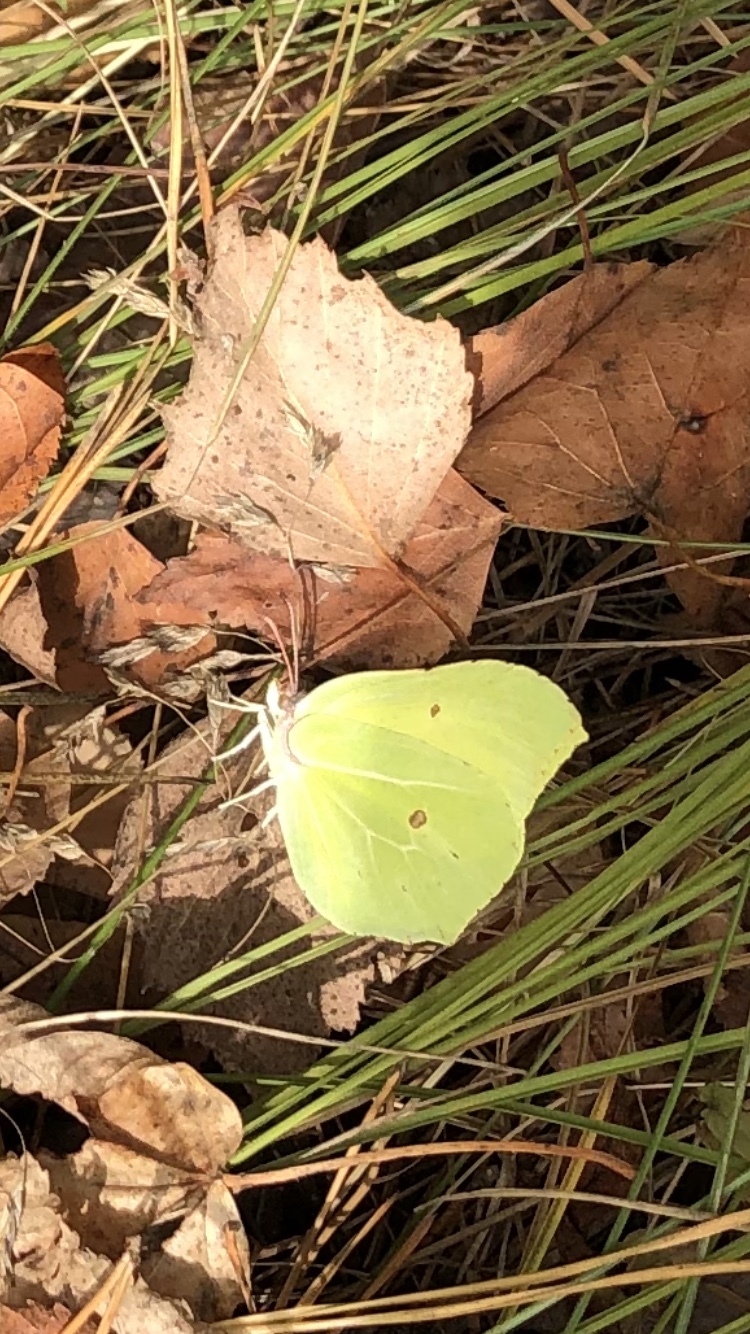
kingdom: Animalia
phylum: Arthropoda
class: Insecta
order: Lepidoptera
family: Pieridae
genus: Gonepteryx
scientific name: Gonepteryx rhamni
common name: Brimstone
